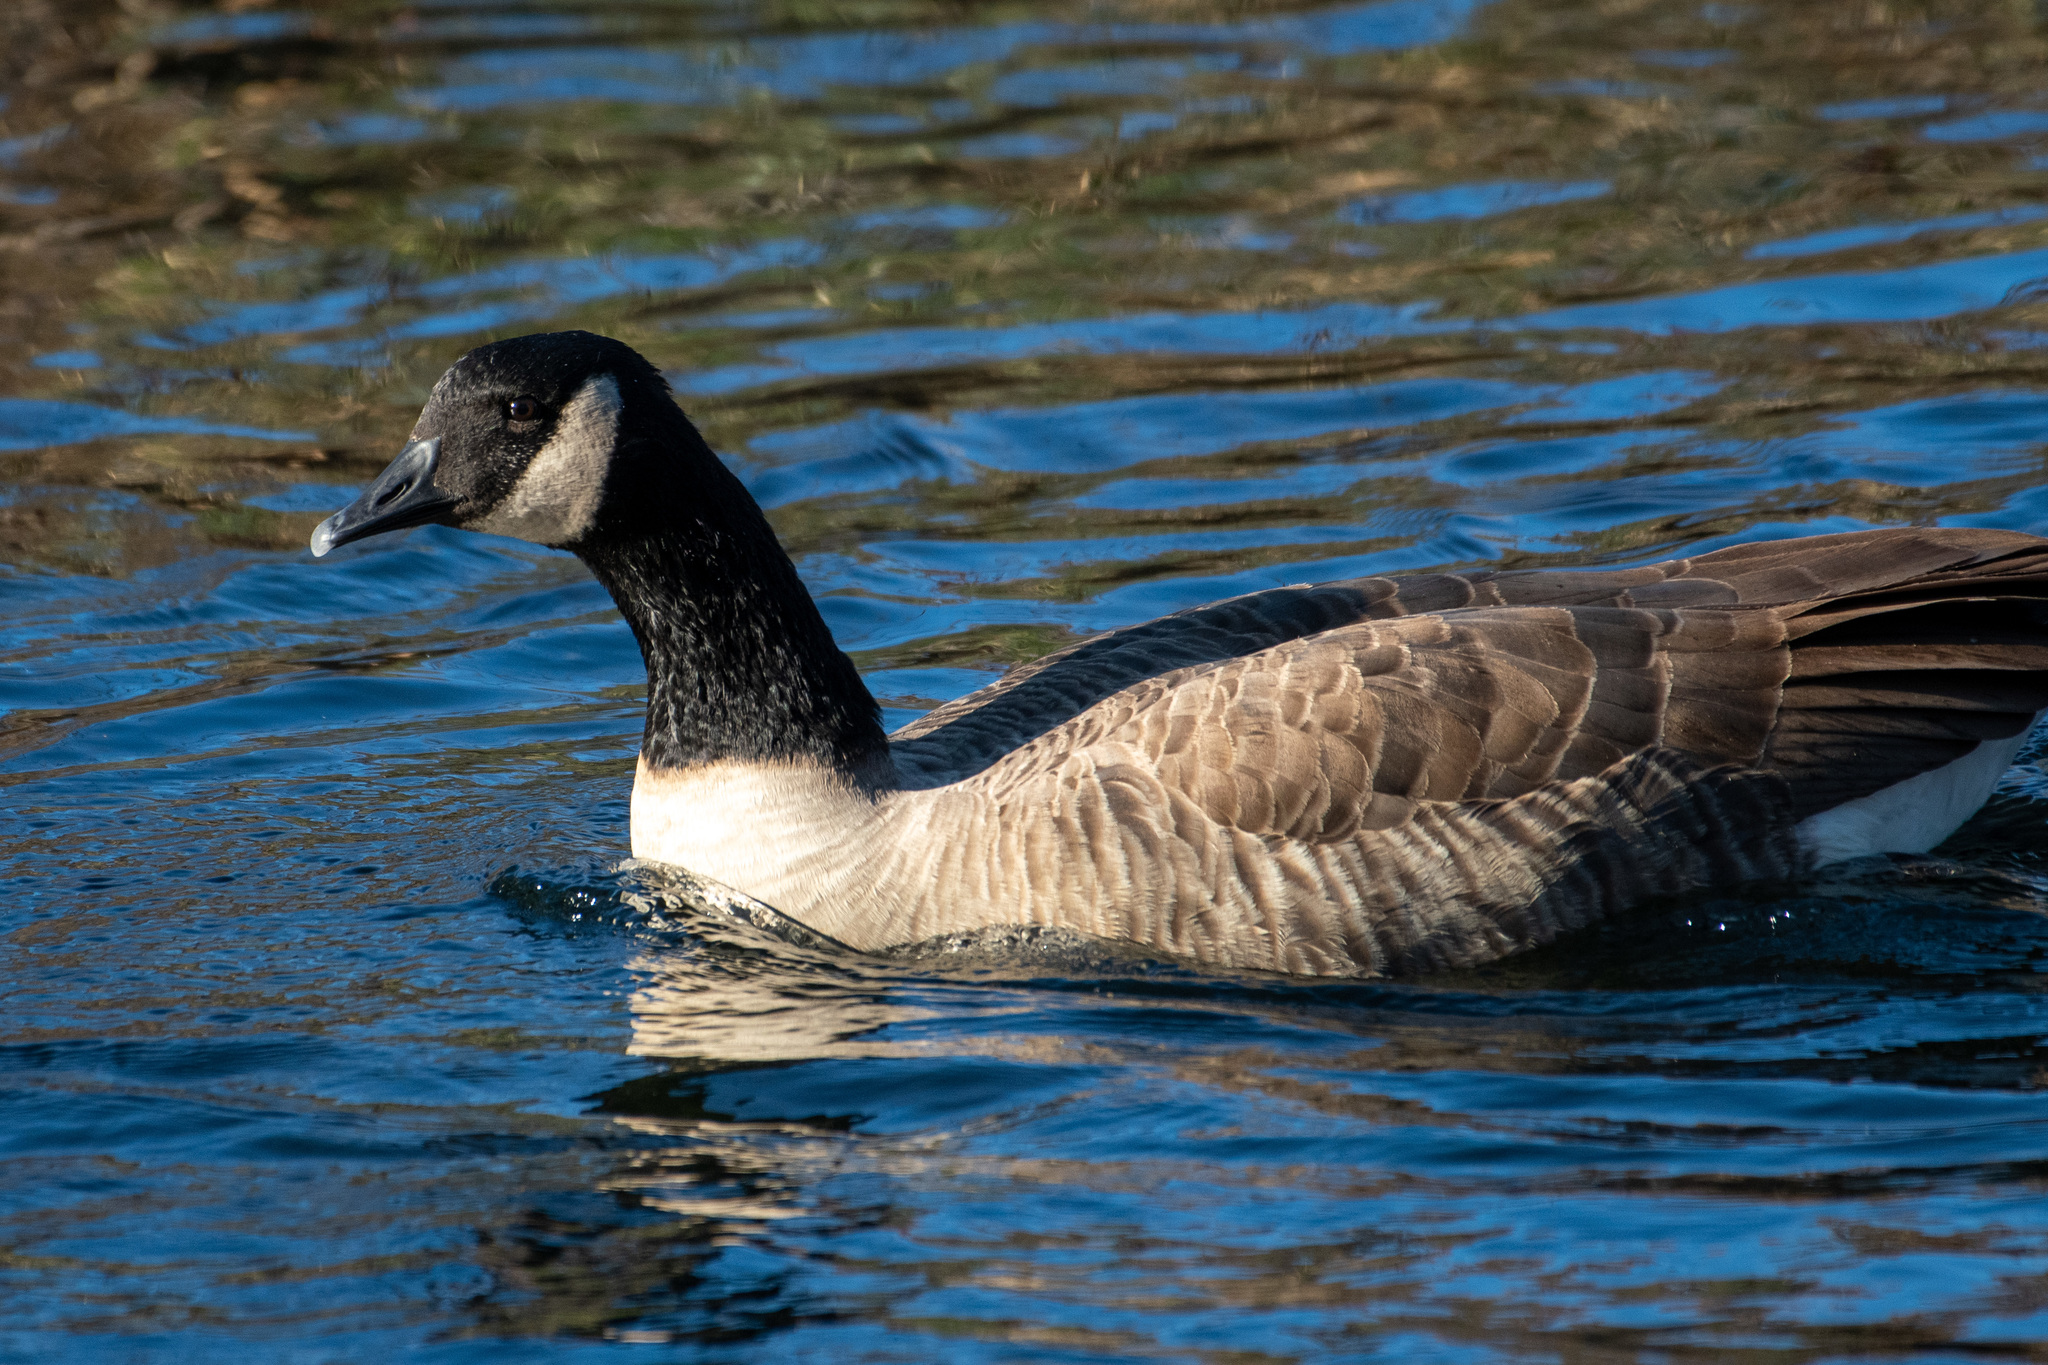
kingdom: Animalia
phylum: Chordata
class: Aves
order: Anseriformes
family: Anatidae
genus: Branta
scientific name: Branta canadensis
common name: Canada goose
